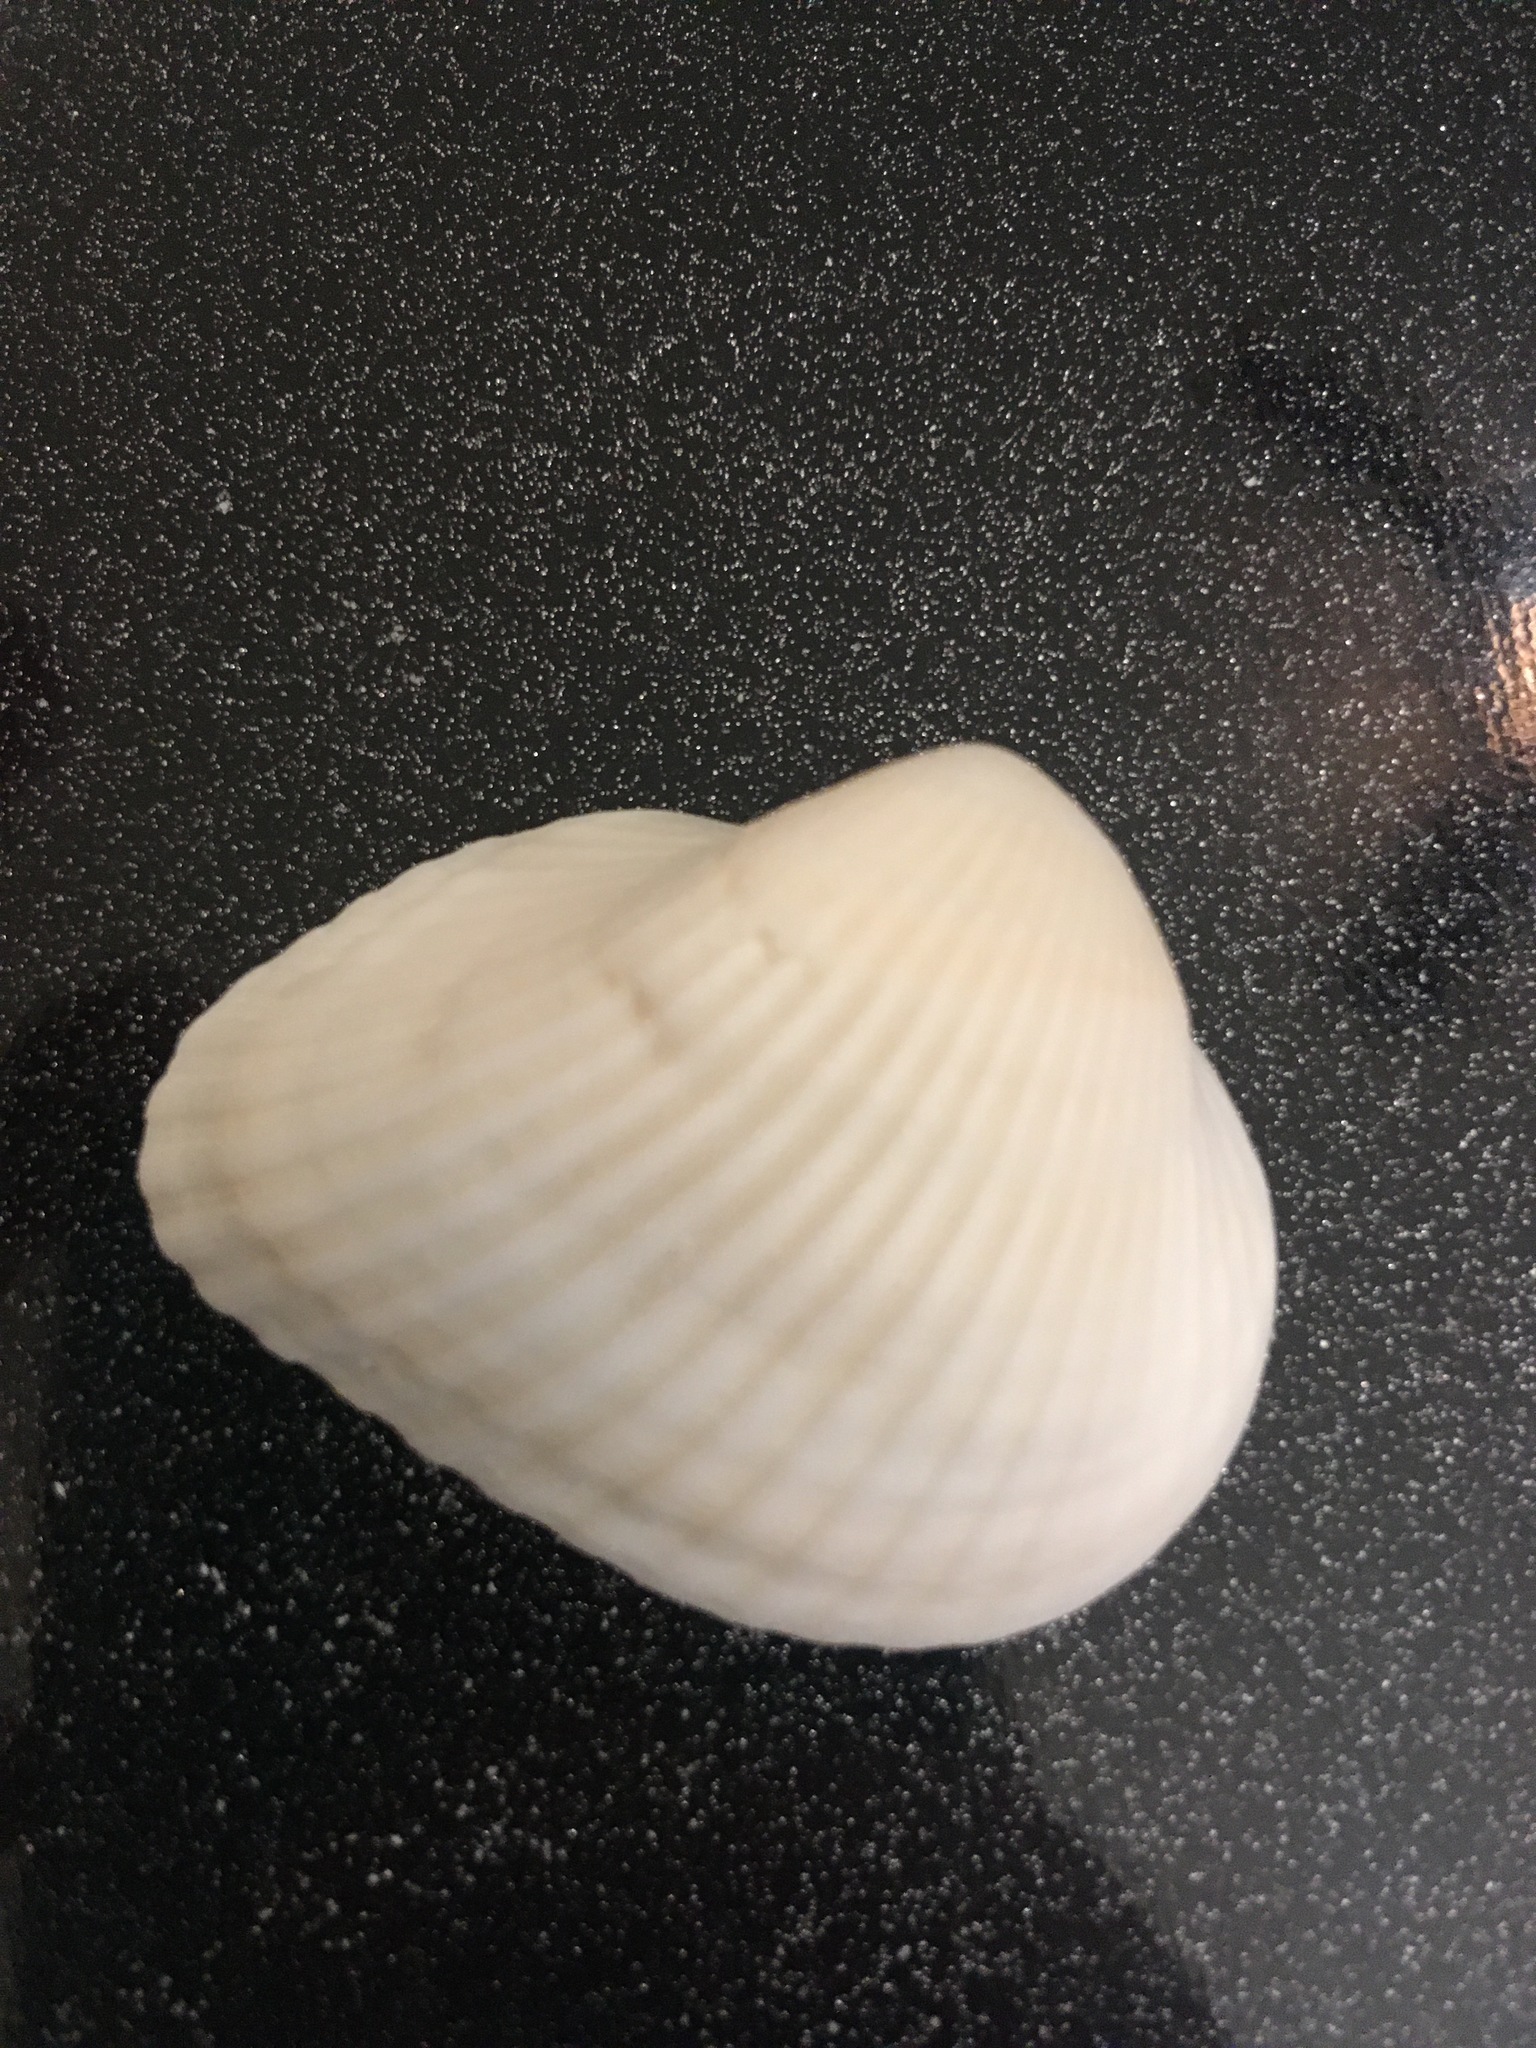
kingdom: Animalia
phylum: Mollusca
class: Bivalvia
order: Arcida
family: Noetiidae
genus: Noetia
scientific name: Noetia ponderosa
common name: Ponderous ark
